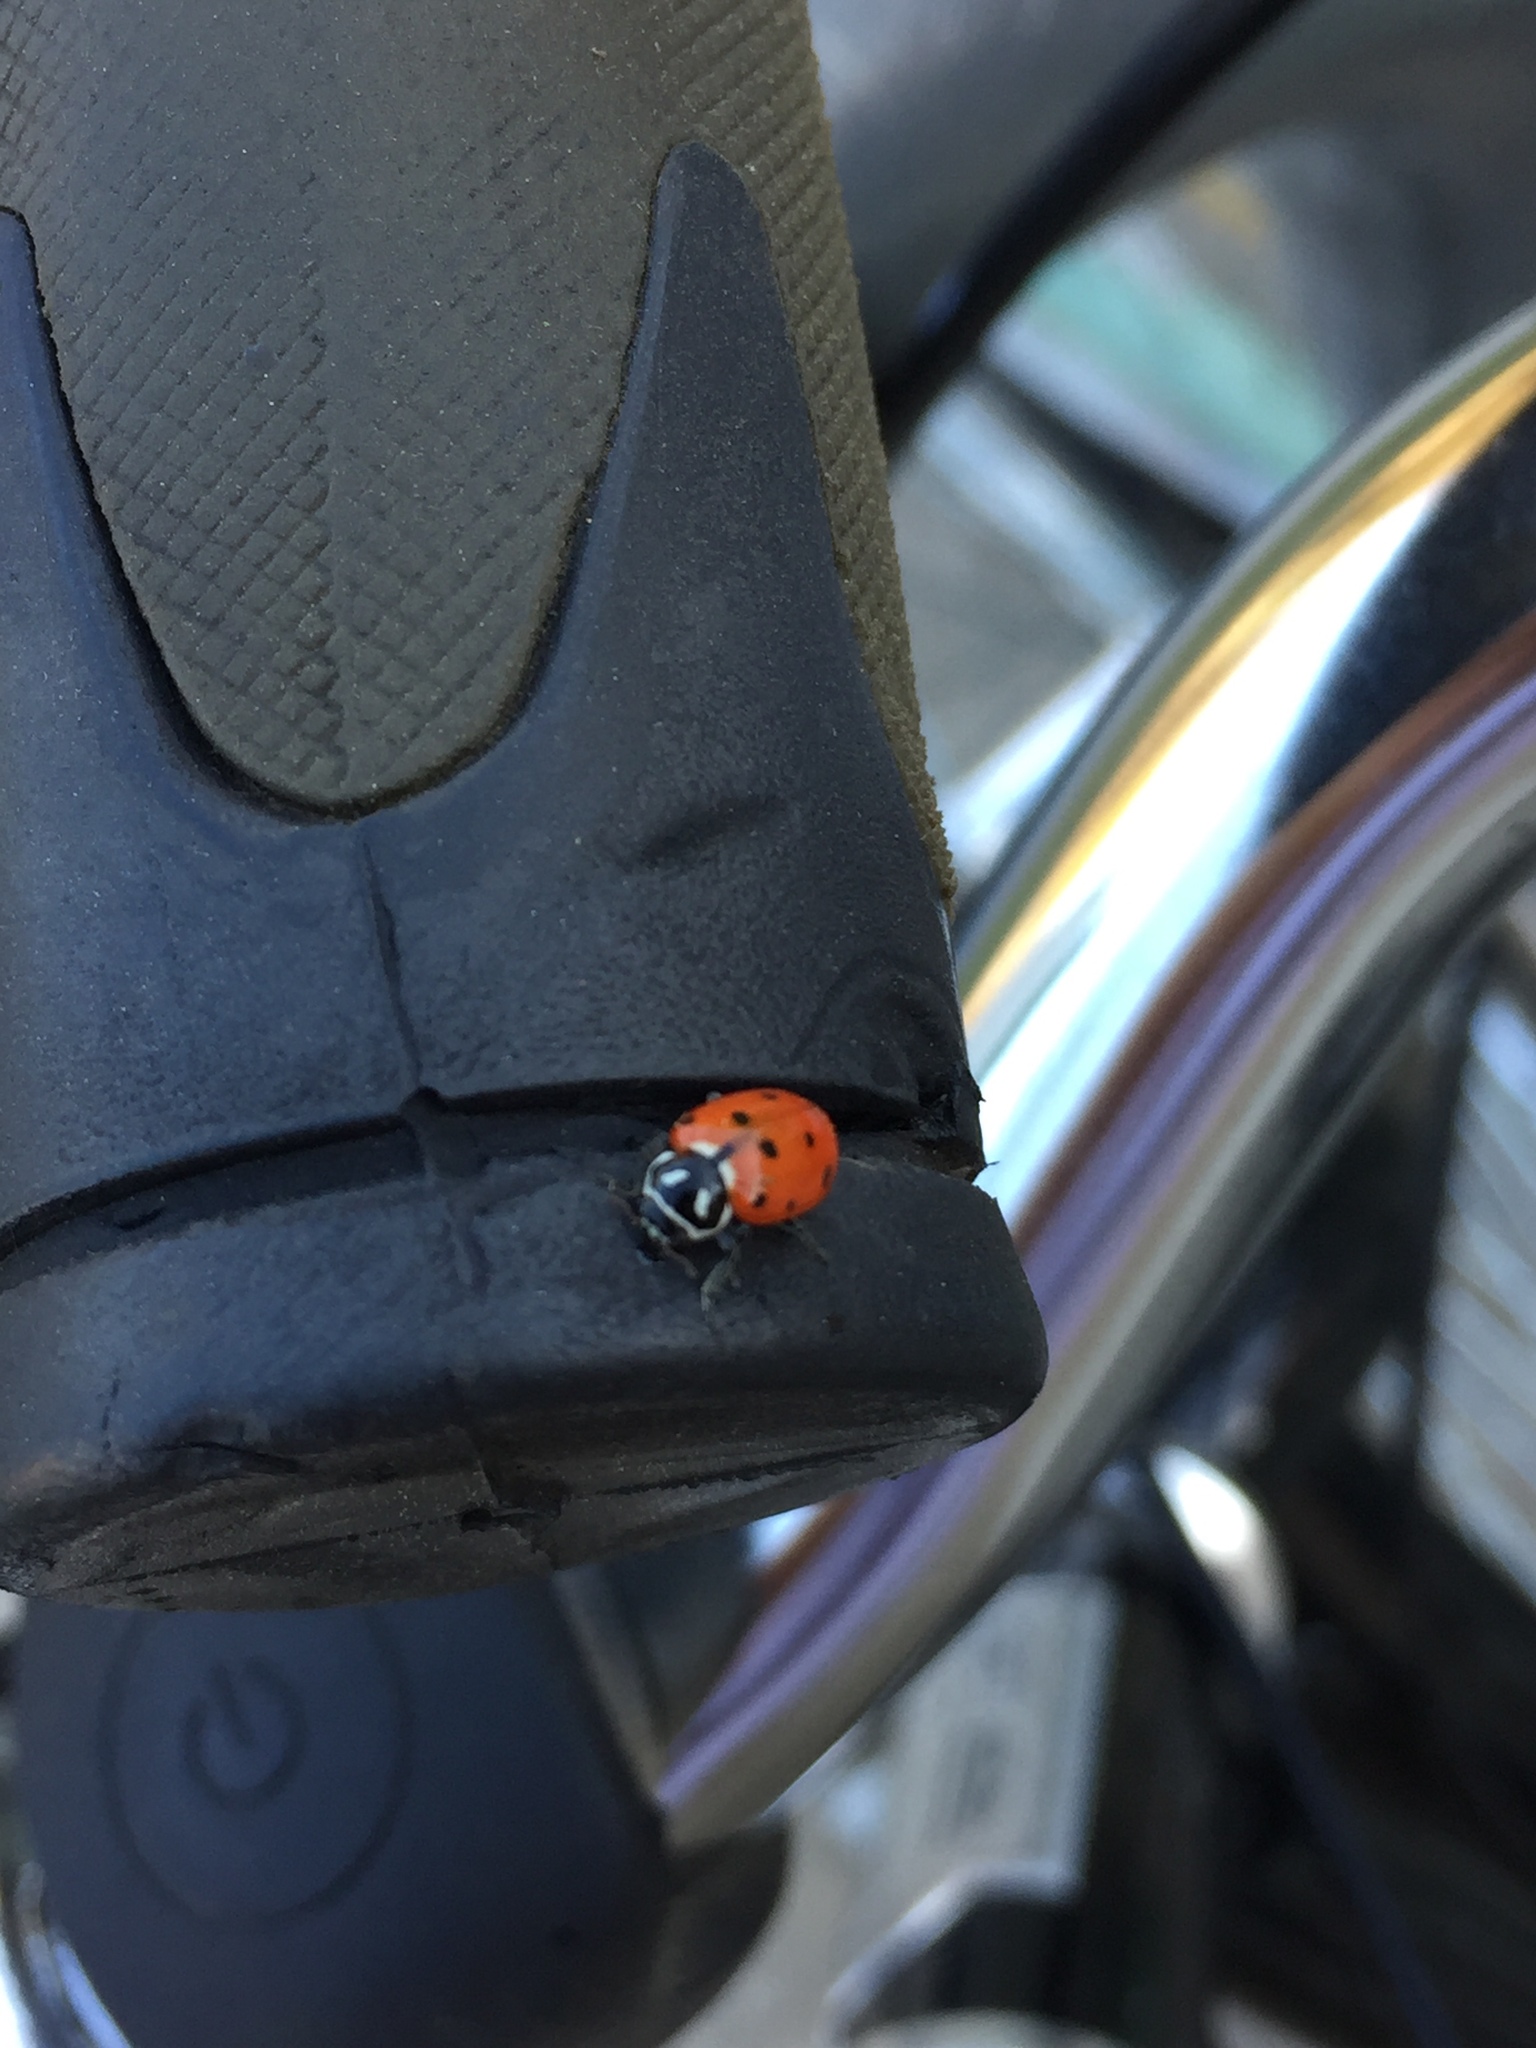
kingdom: Animalia
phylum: Arthropoda
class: Insecta
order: Coleoptera
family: Coccinellidae
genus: Hippodamia
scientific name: Hippodamia convergens
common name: Convergent lady beetle
